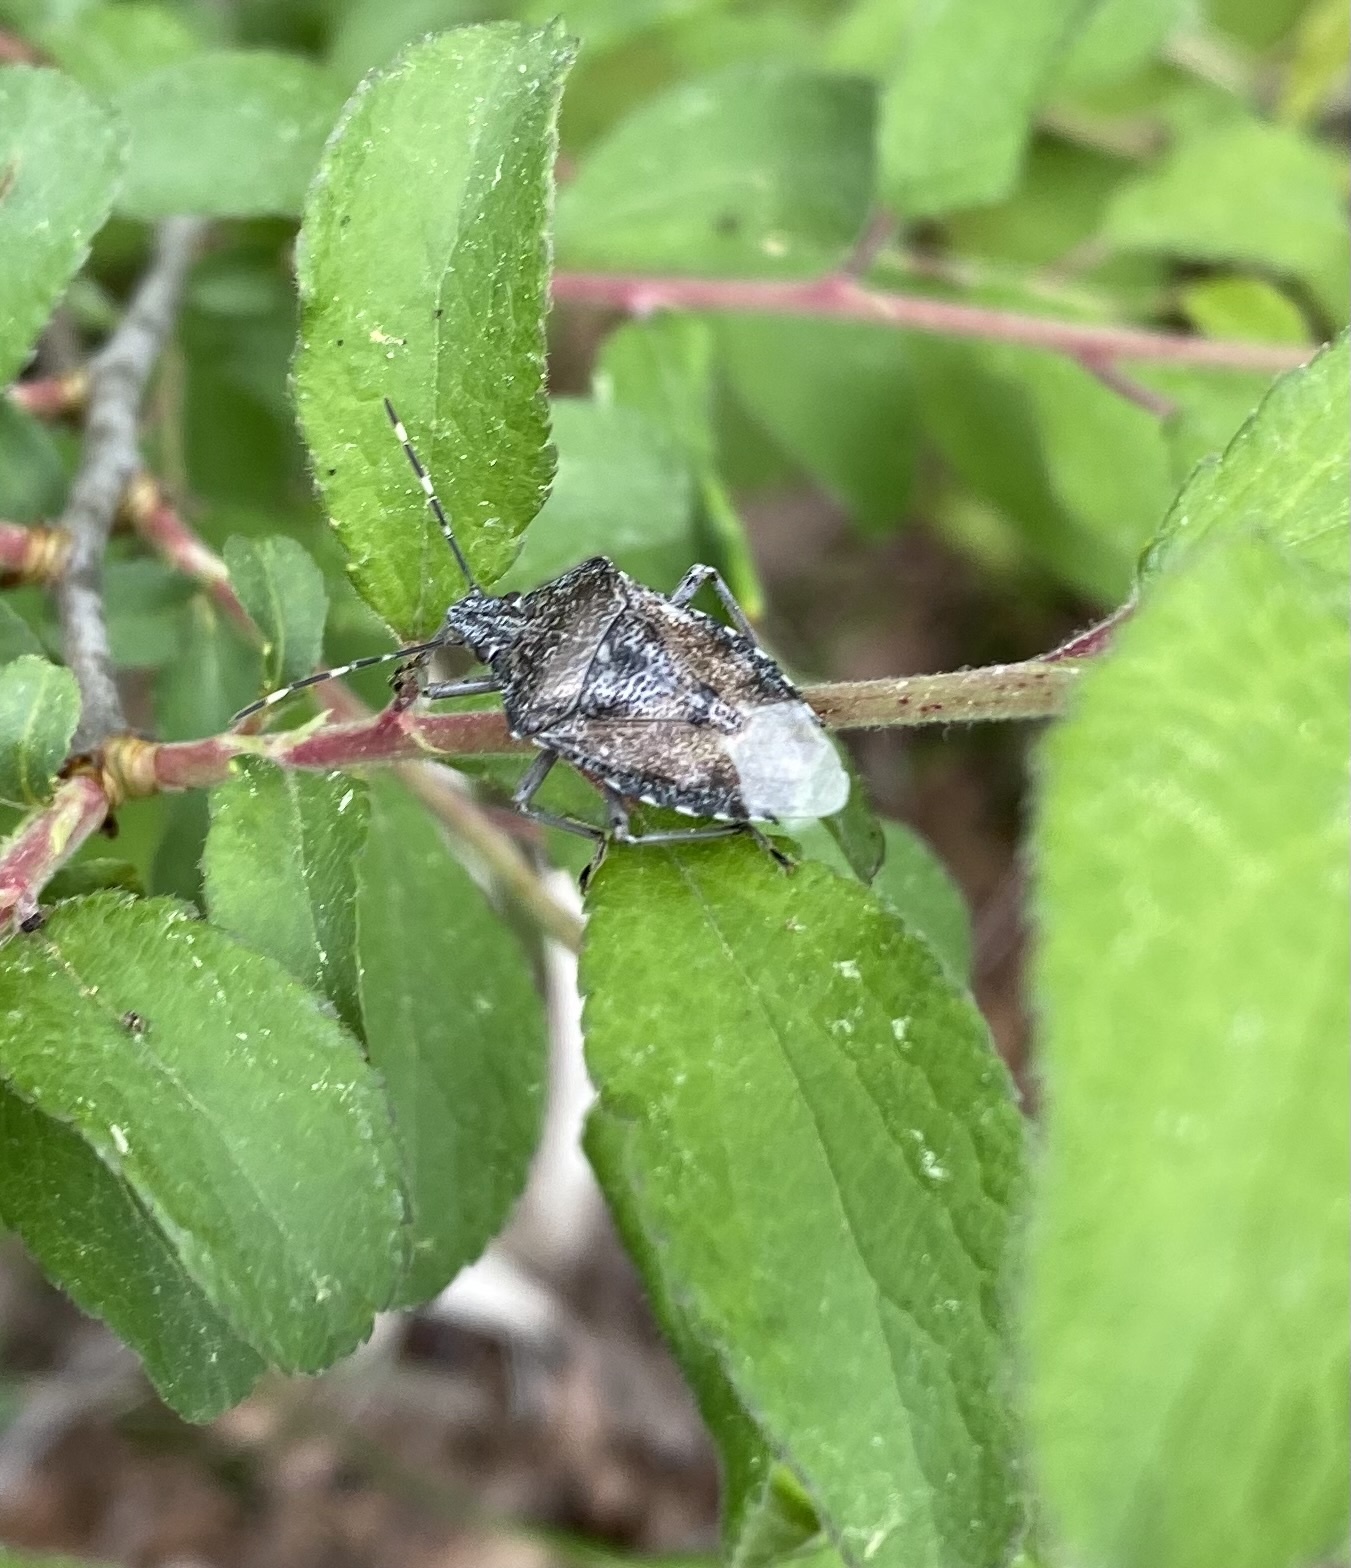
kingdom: Animalia
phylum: Arthropoda
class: Insecta
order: Hemiptera
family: Pentatomidae
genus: Rhaphigaster
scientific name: Rhaphigaster nebulosa
